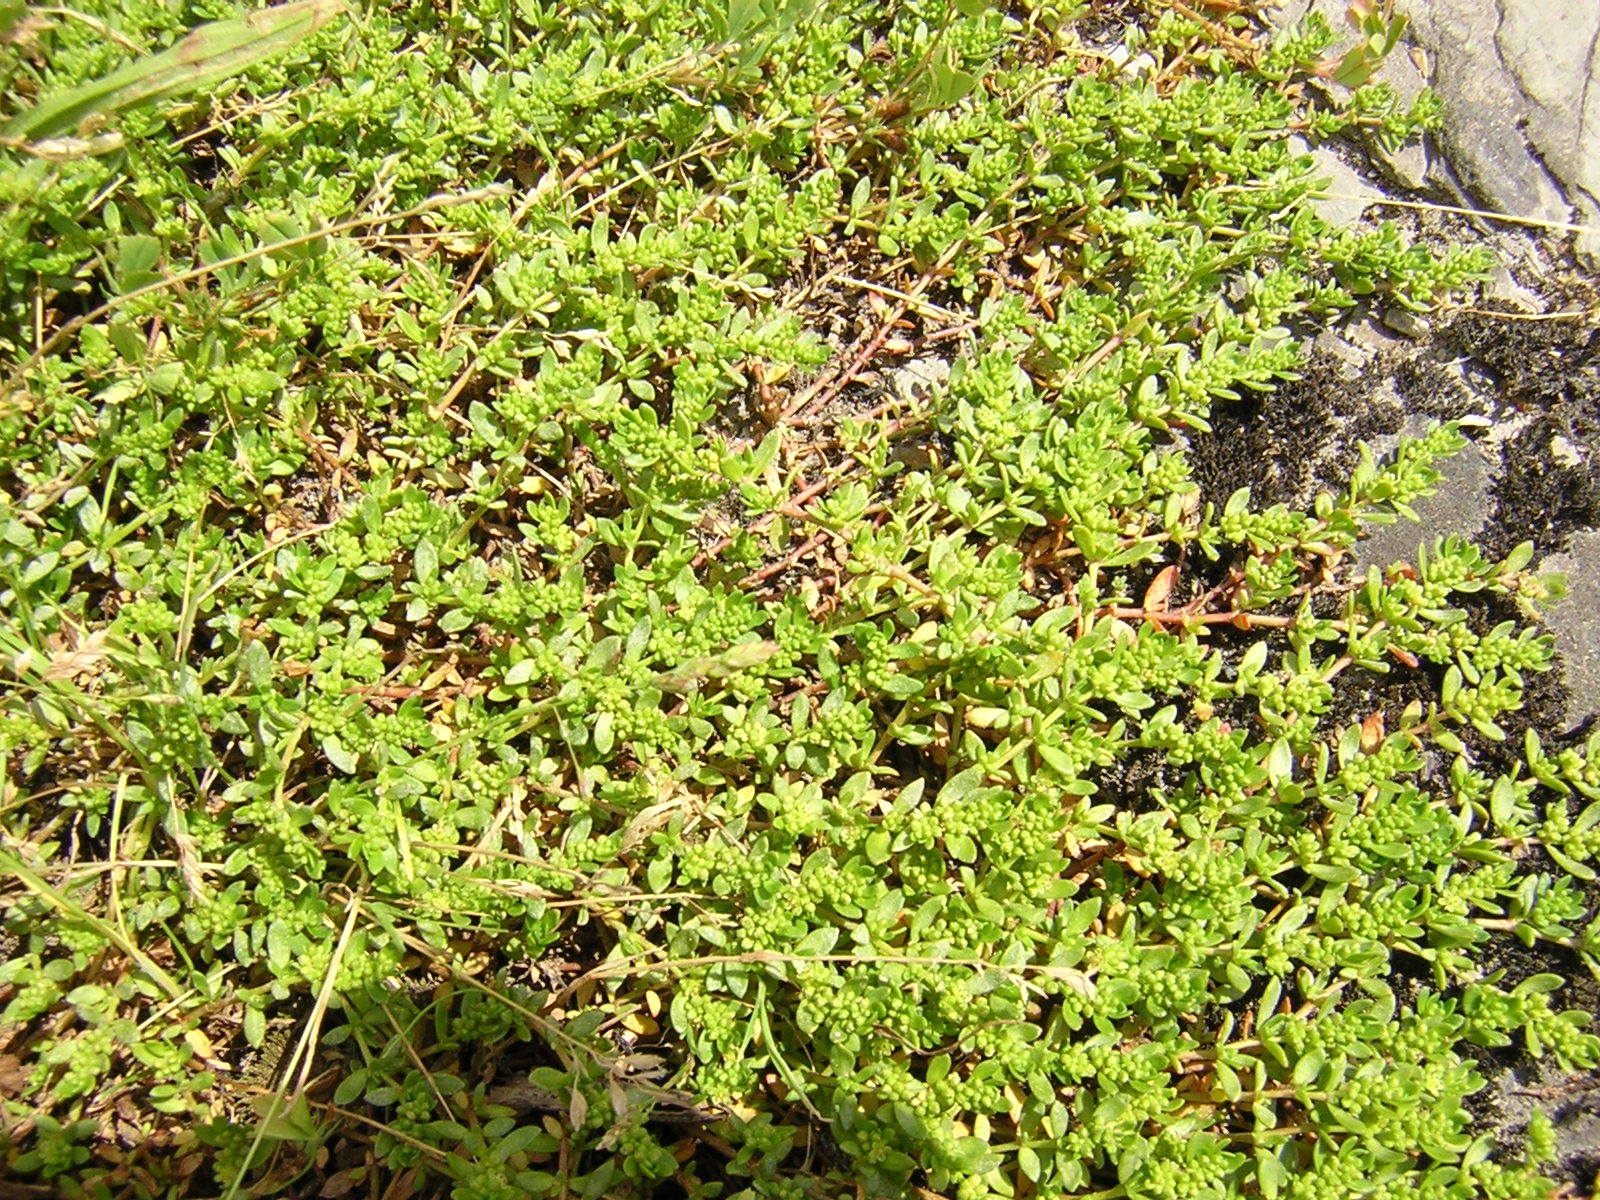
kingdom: Plantae
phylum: Tracheophyta
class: Magnoliopsida
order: Caryophyllales
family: Caryophyllaceae
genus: Herniaria
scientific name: Herniaria glabra
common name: Smooth rupturewort
